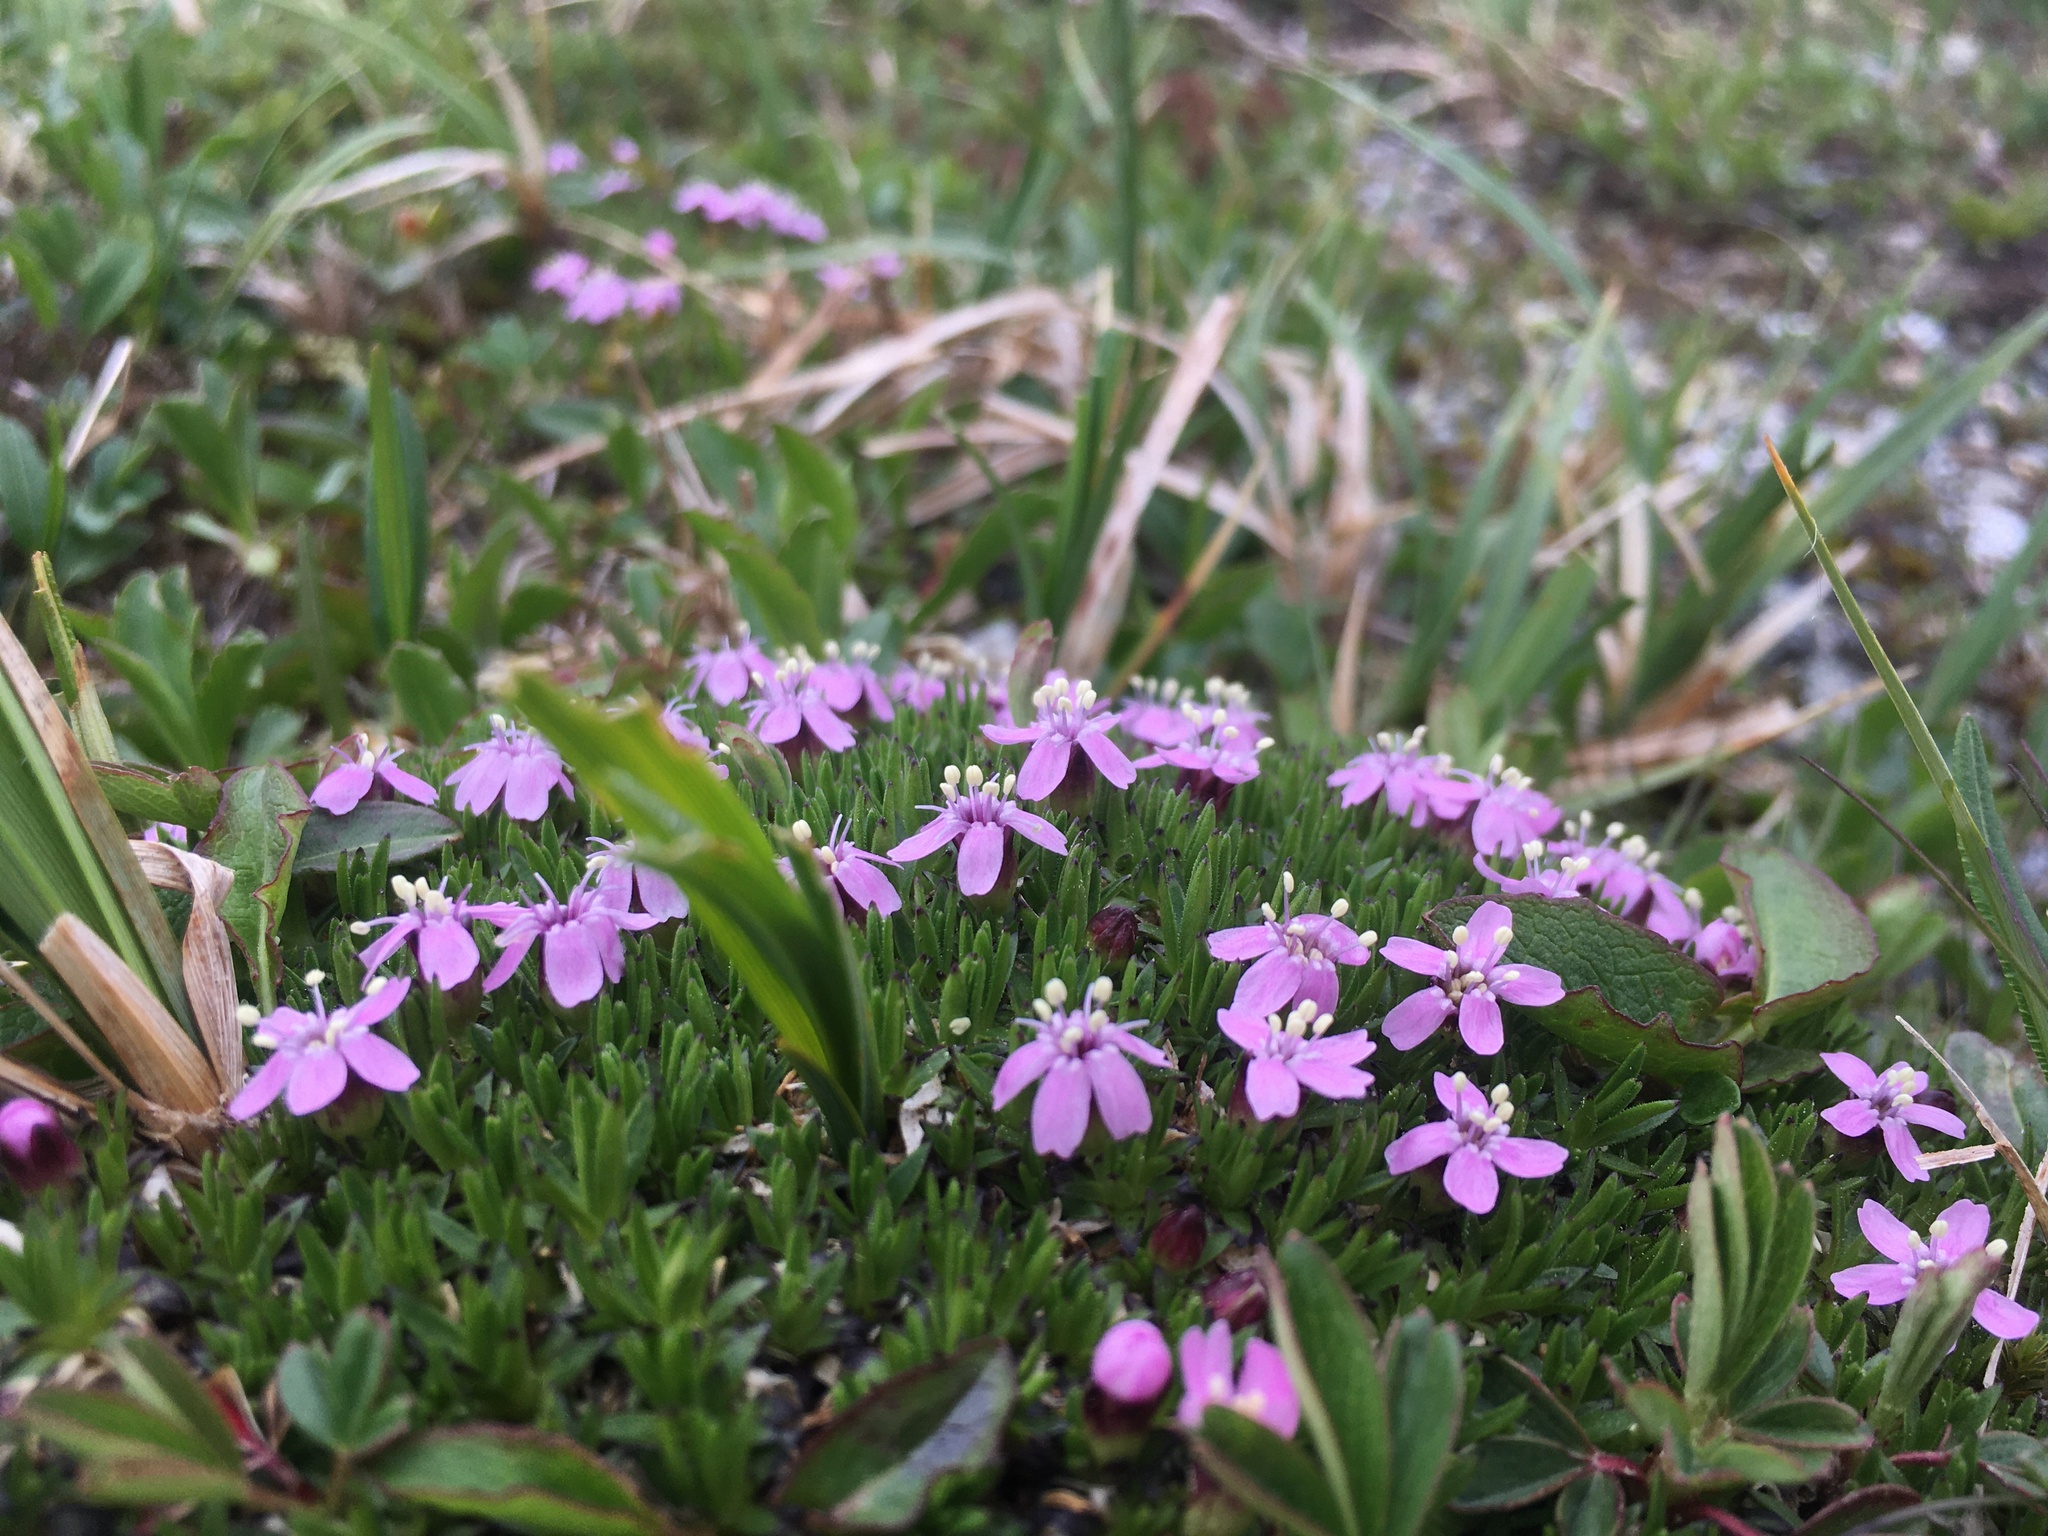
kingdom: Plantae
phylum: Tracheophyta
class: Magnoliopsida
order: Caryophyllales
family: Caryophyllaceae
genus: Silene
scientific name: Silene acaulis
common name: Moss campion
